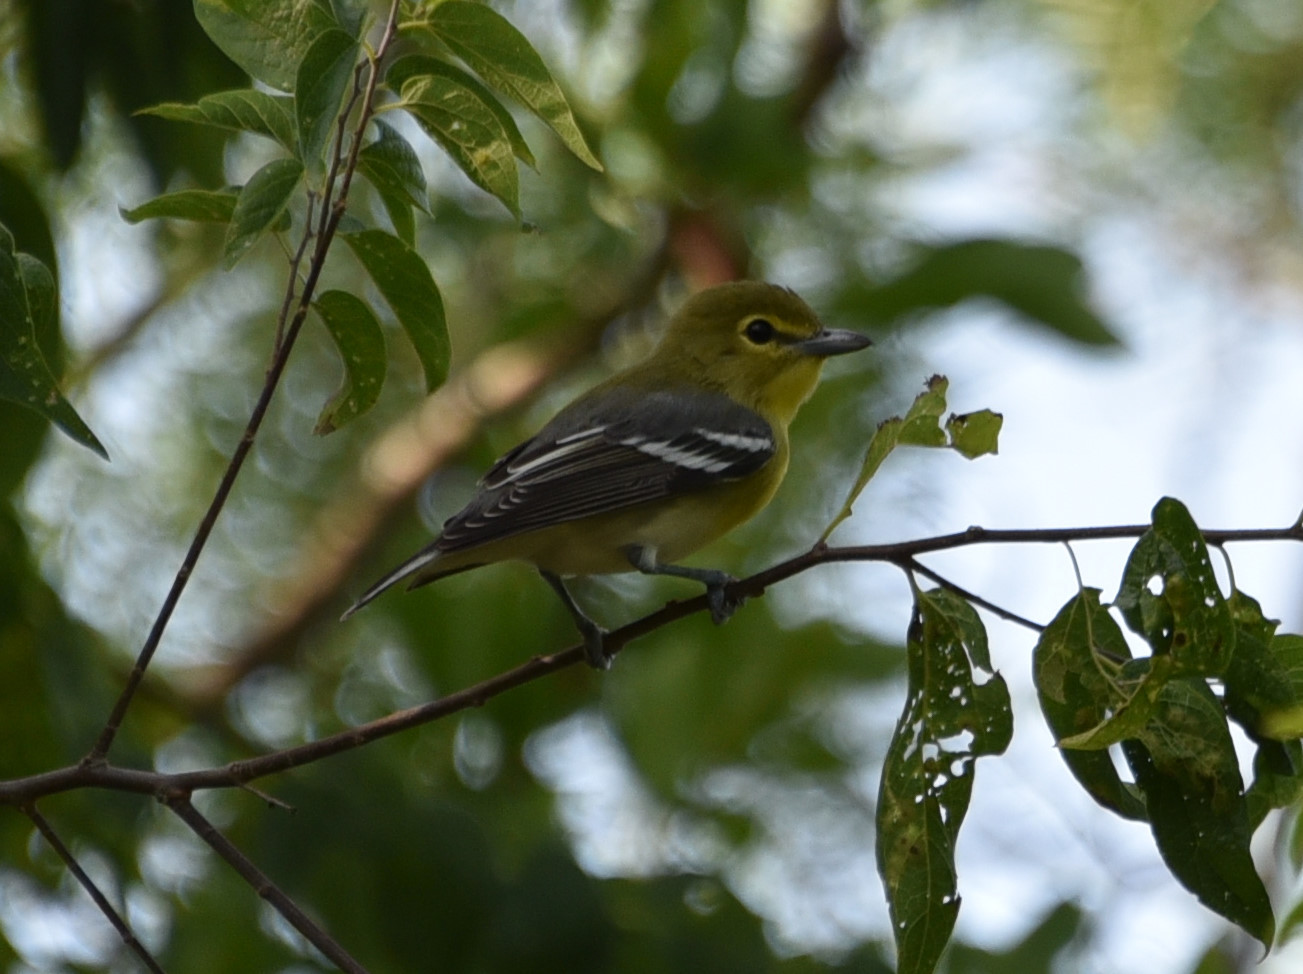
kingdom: Animalia
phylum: Chordata
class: Aves
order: Passeriformes
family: Vireonidae
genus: Vireo
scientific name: Vireo flavifrons
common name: Yellow-throated vireo
